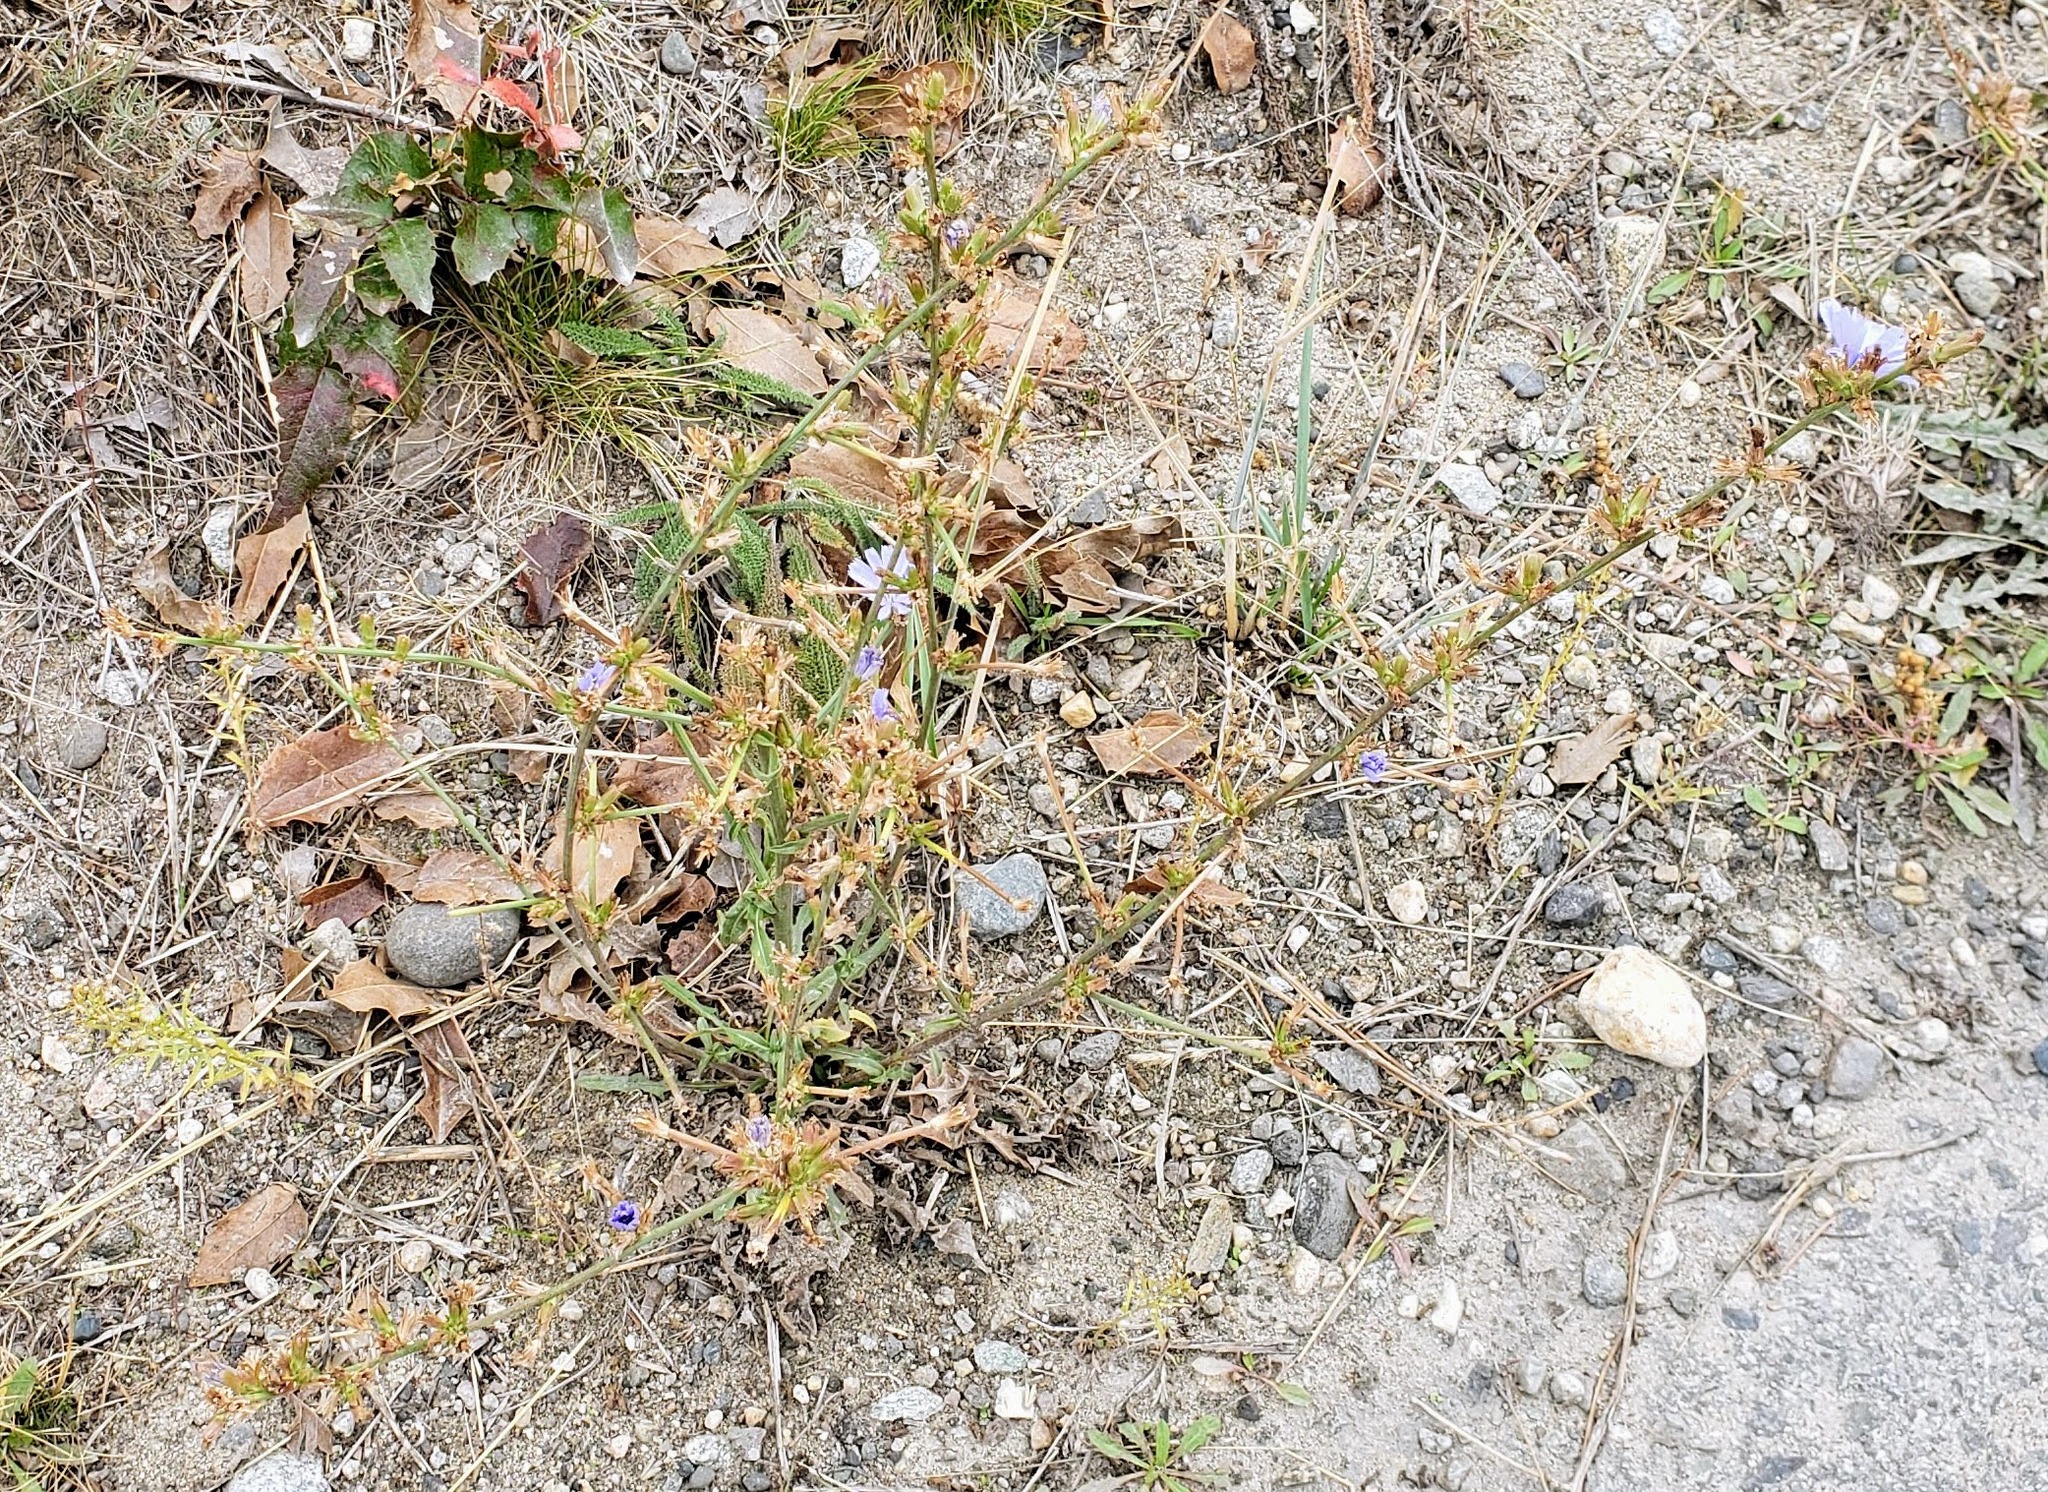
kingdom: Plantae
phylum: Tracheophyta
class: Magnoliopsida
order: Asterales
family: Asteraceae
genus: Cichorium
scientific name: Cichorium intybus
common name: Chicory
